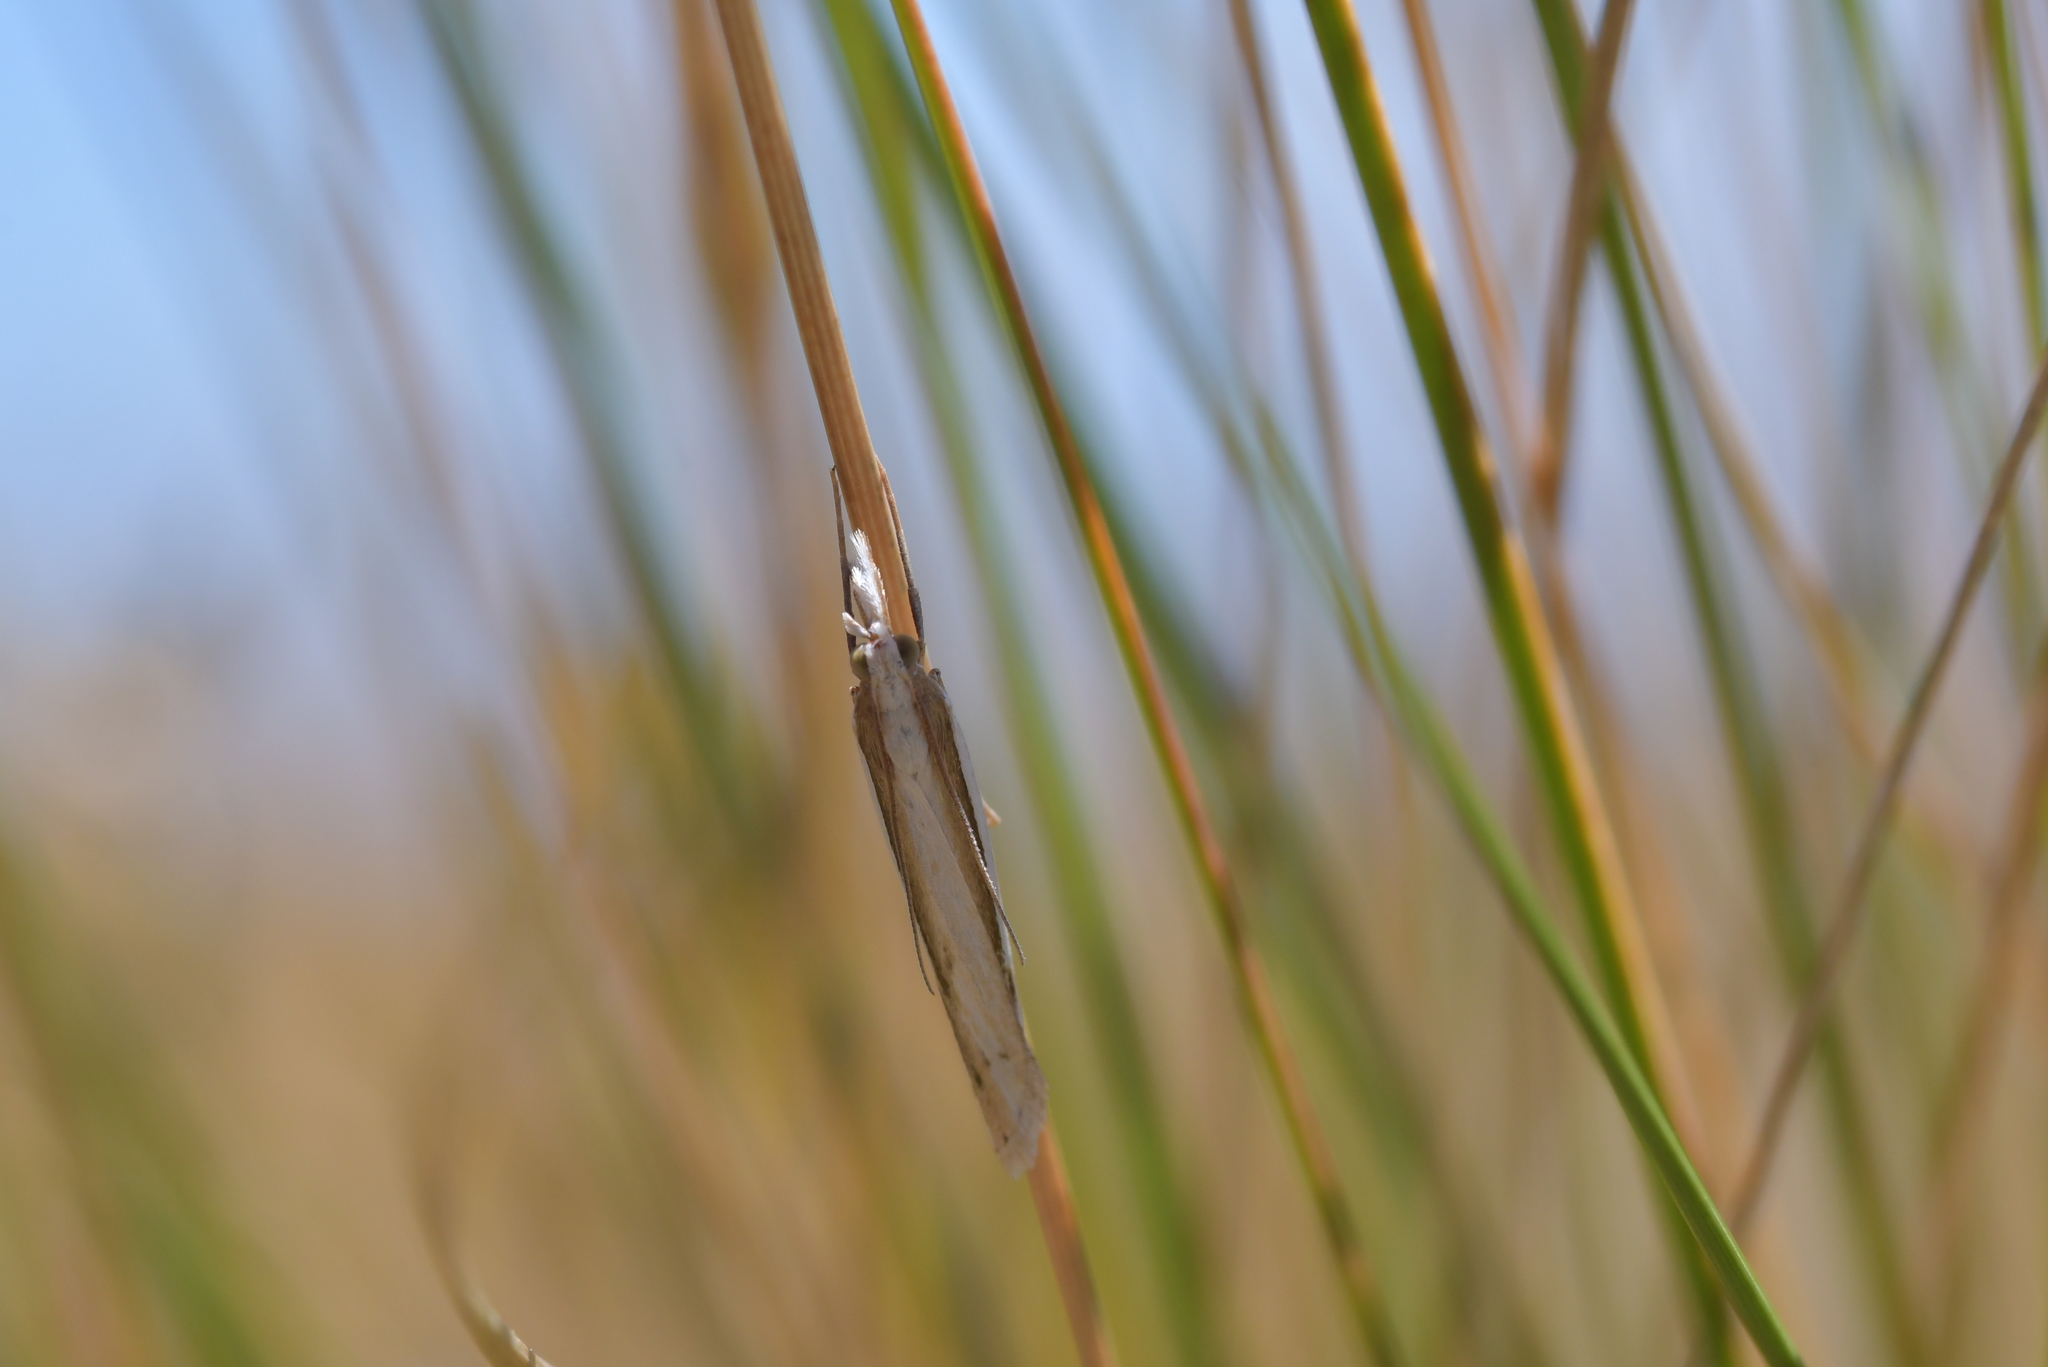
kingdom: Animalia
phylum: Arthropoda
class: Insecta
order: Lepidoptera
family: Crambidae
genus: Orocrambus
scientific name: Orocrambus ramosellus
